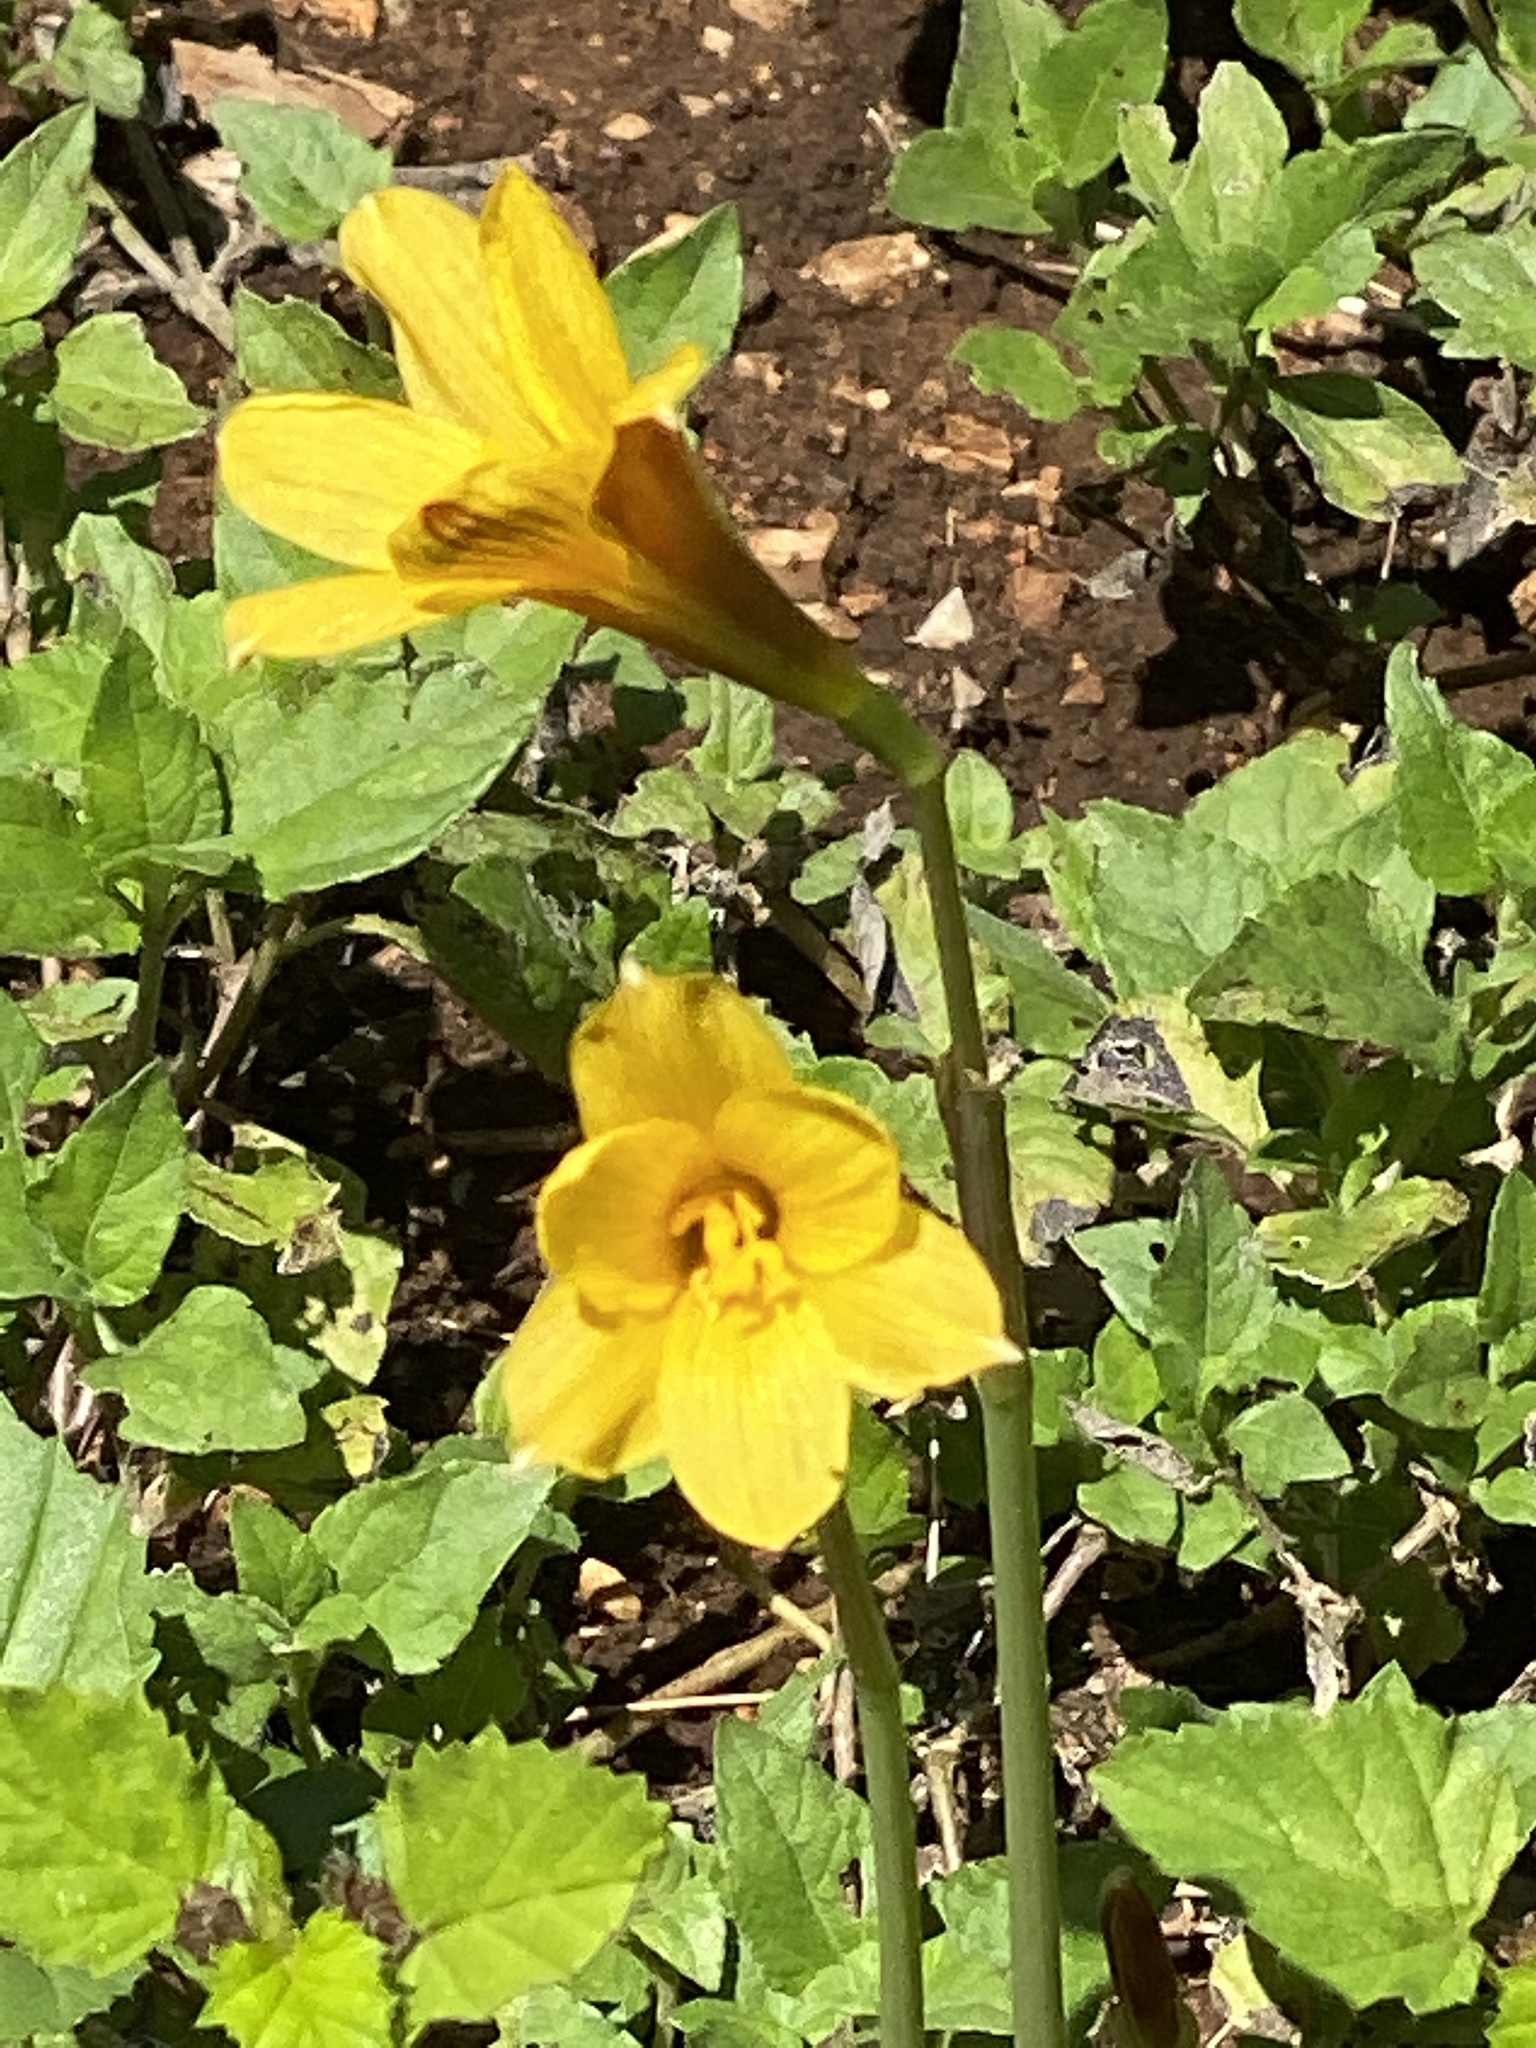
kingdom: Plantae
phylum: Tracheophyta
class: Liliopsida
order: Asparagales
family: Amaryllidaceae
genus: Zephyranthes
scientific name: Zephyranthes tubispatha
